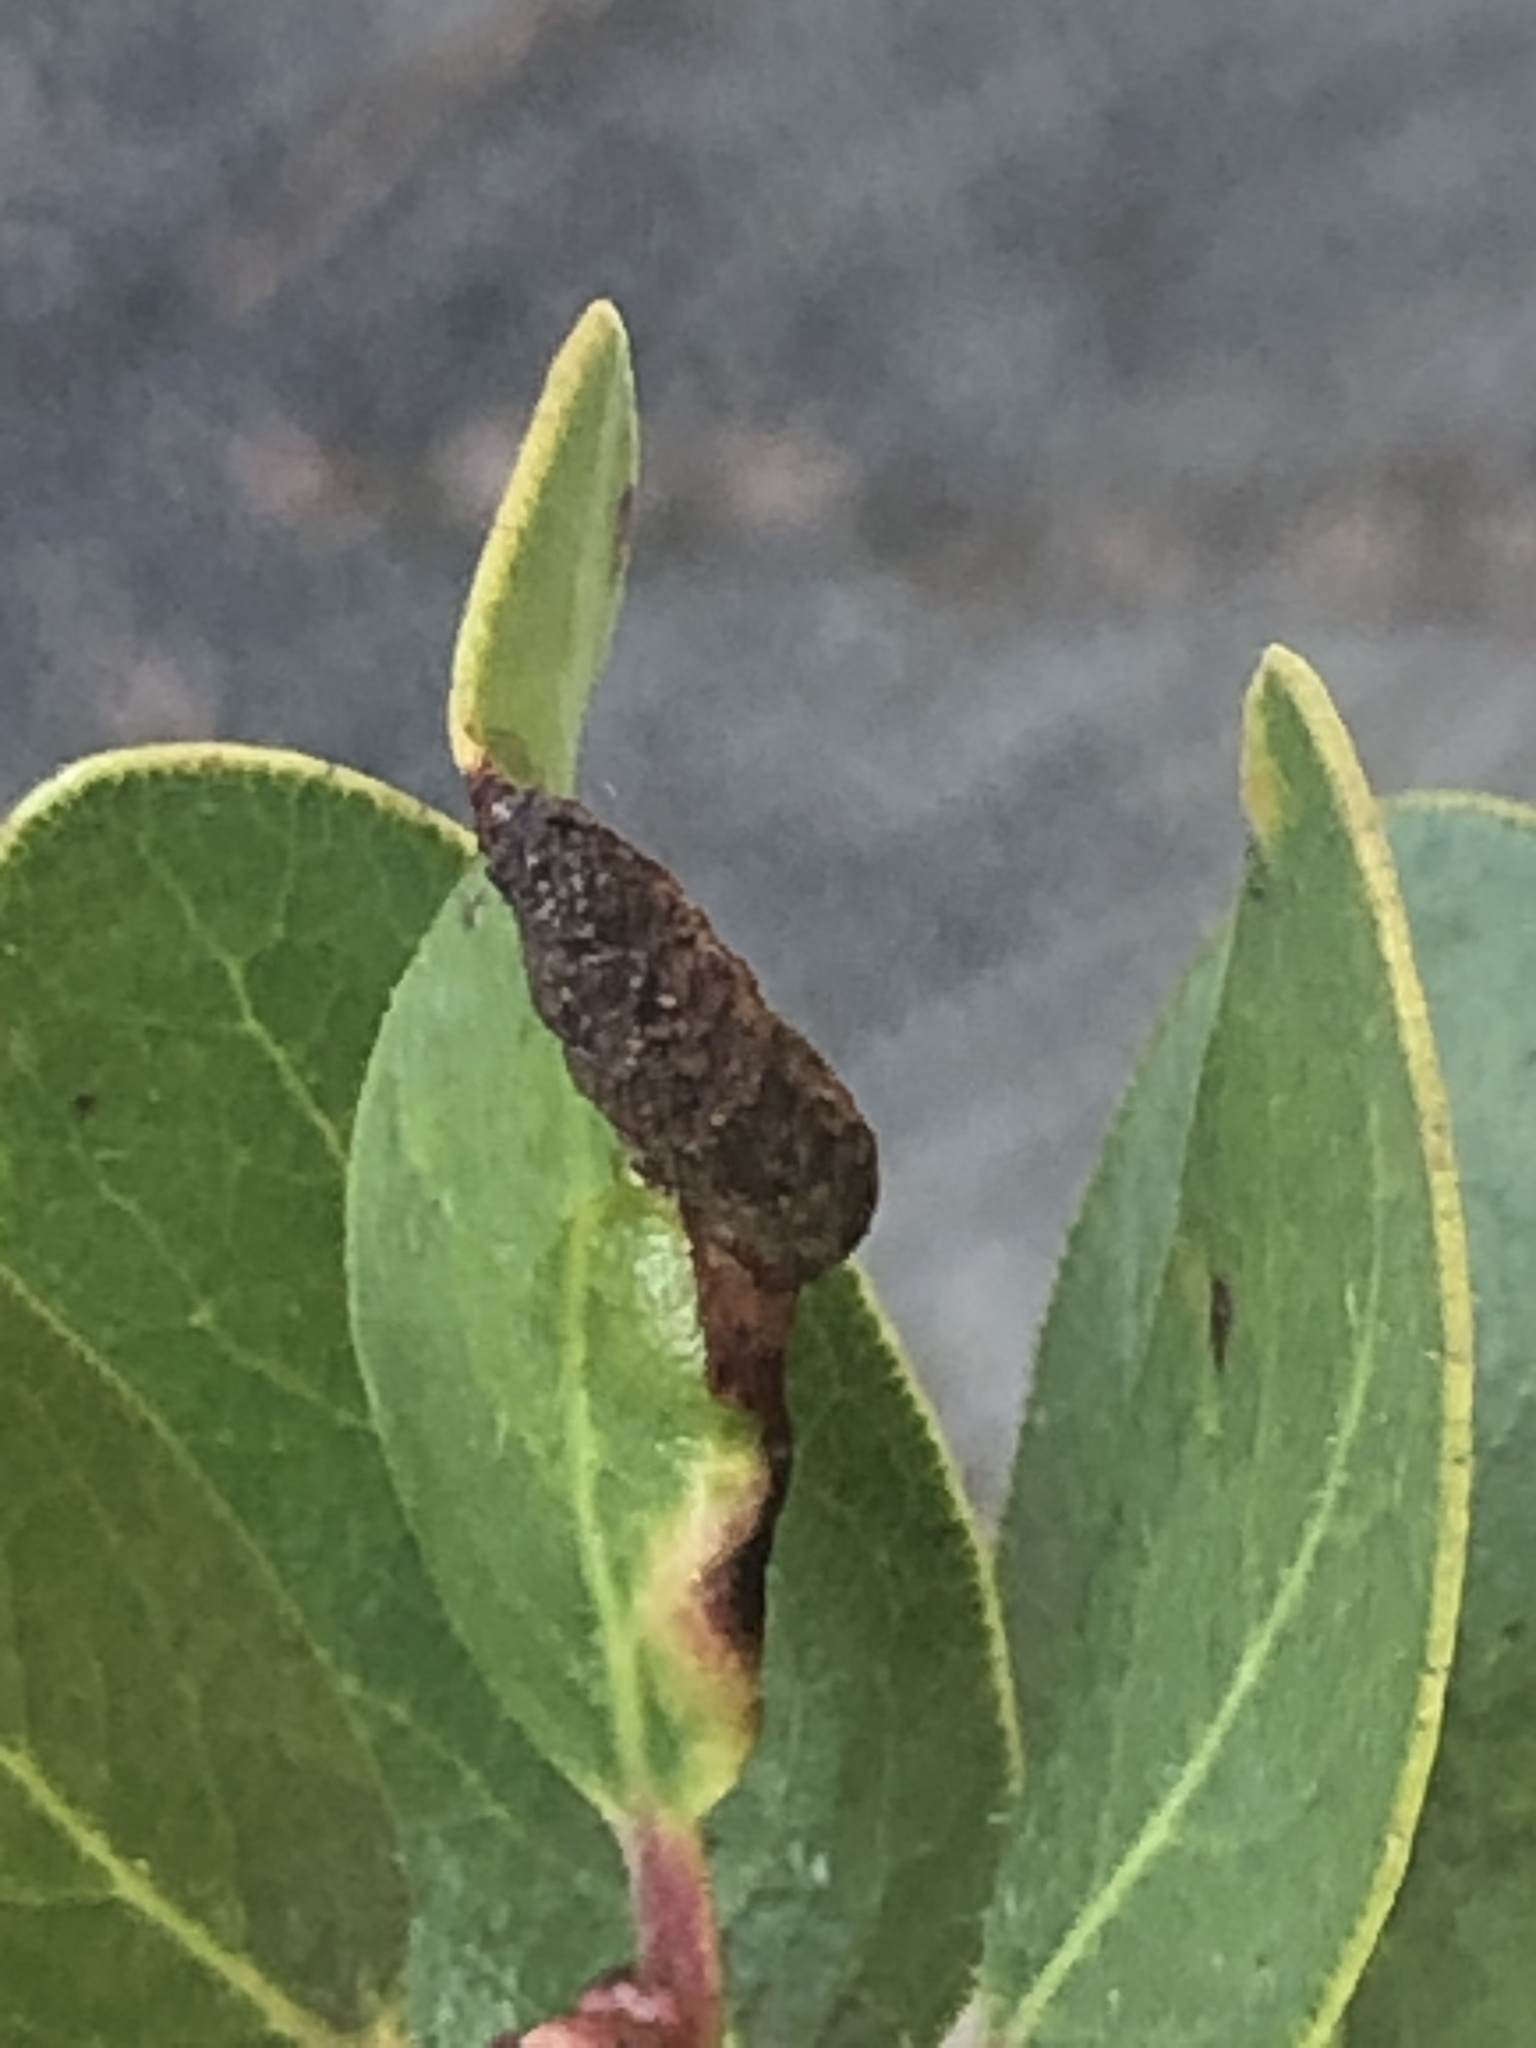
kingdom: Animalia
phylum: Arthropoda
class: Insecta
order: Hemiptera
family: Aphididae
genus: Tamalia
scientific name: Tamalia coweni
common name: Manzanita leafgall aphid
